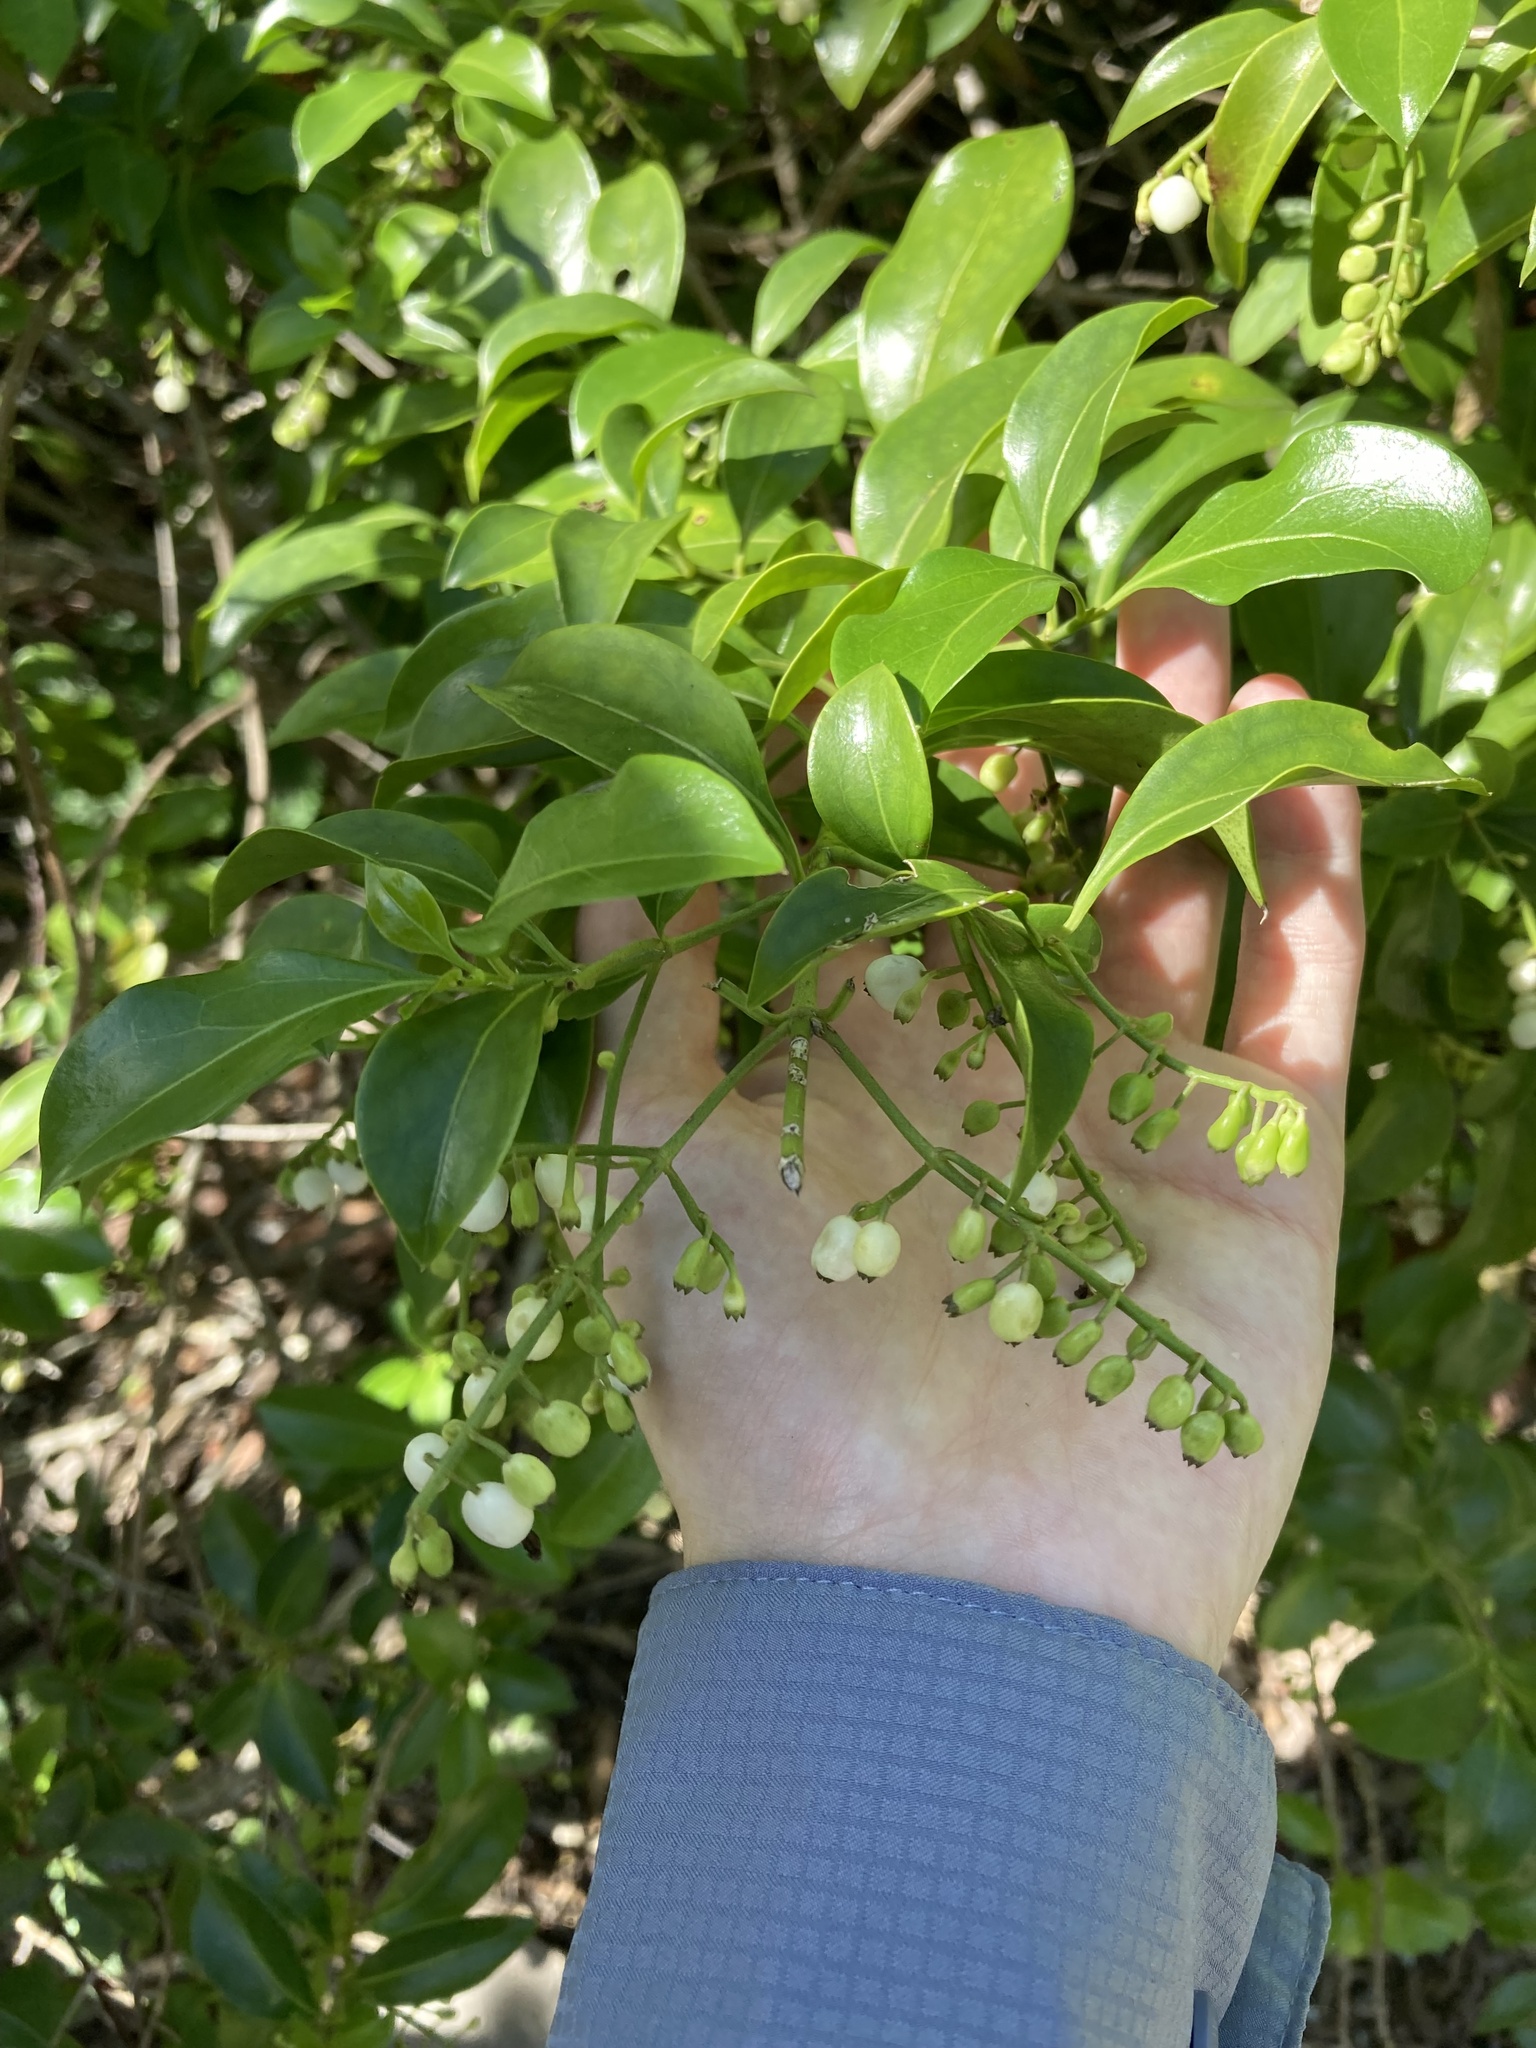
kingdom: Plantae
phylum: Tracheophyta
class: Magnoliopsida
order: Gentianales
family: Rubiaceae
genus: Chiococca
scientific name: Chiococca alba
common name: Snowberry
